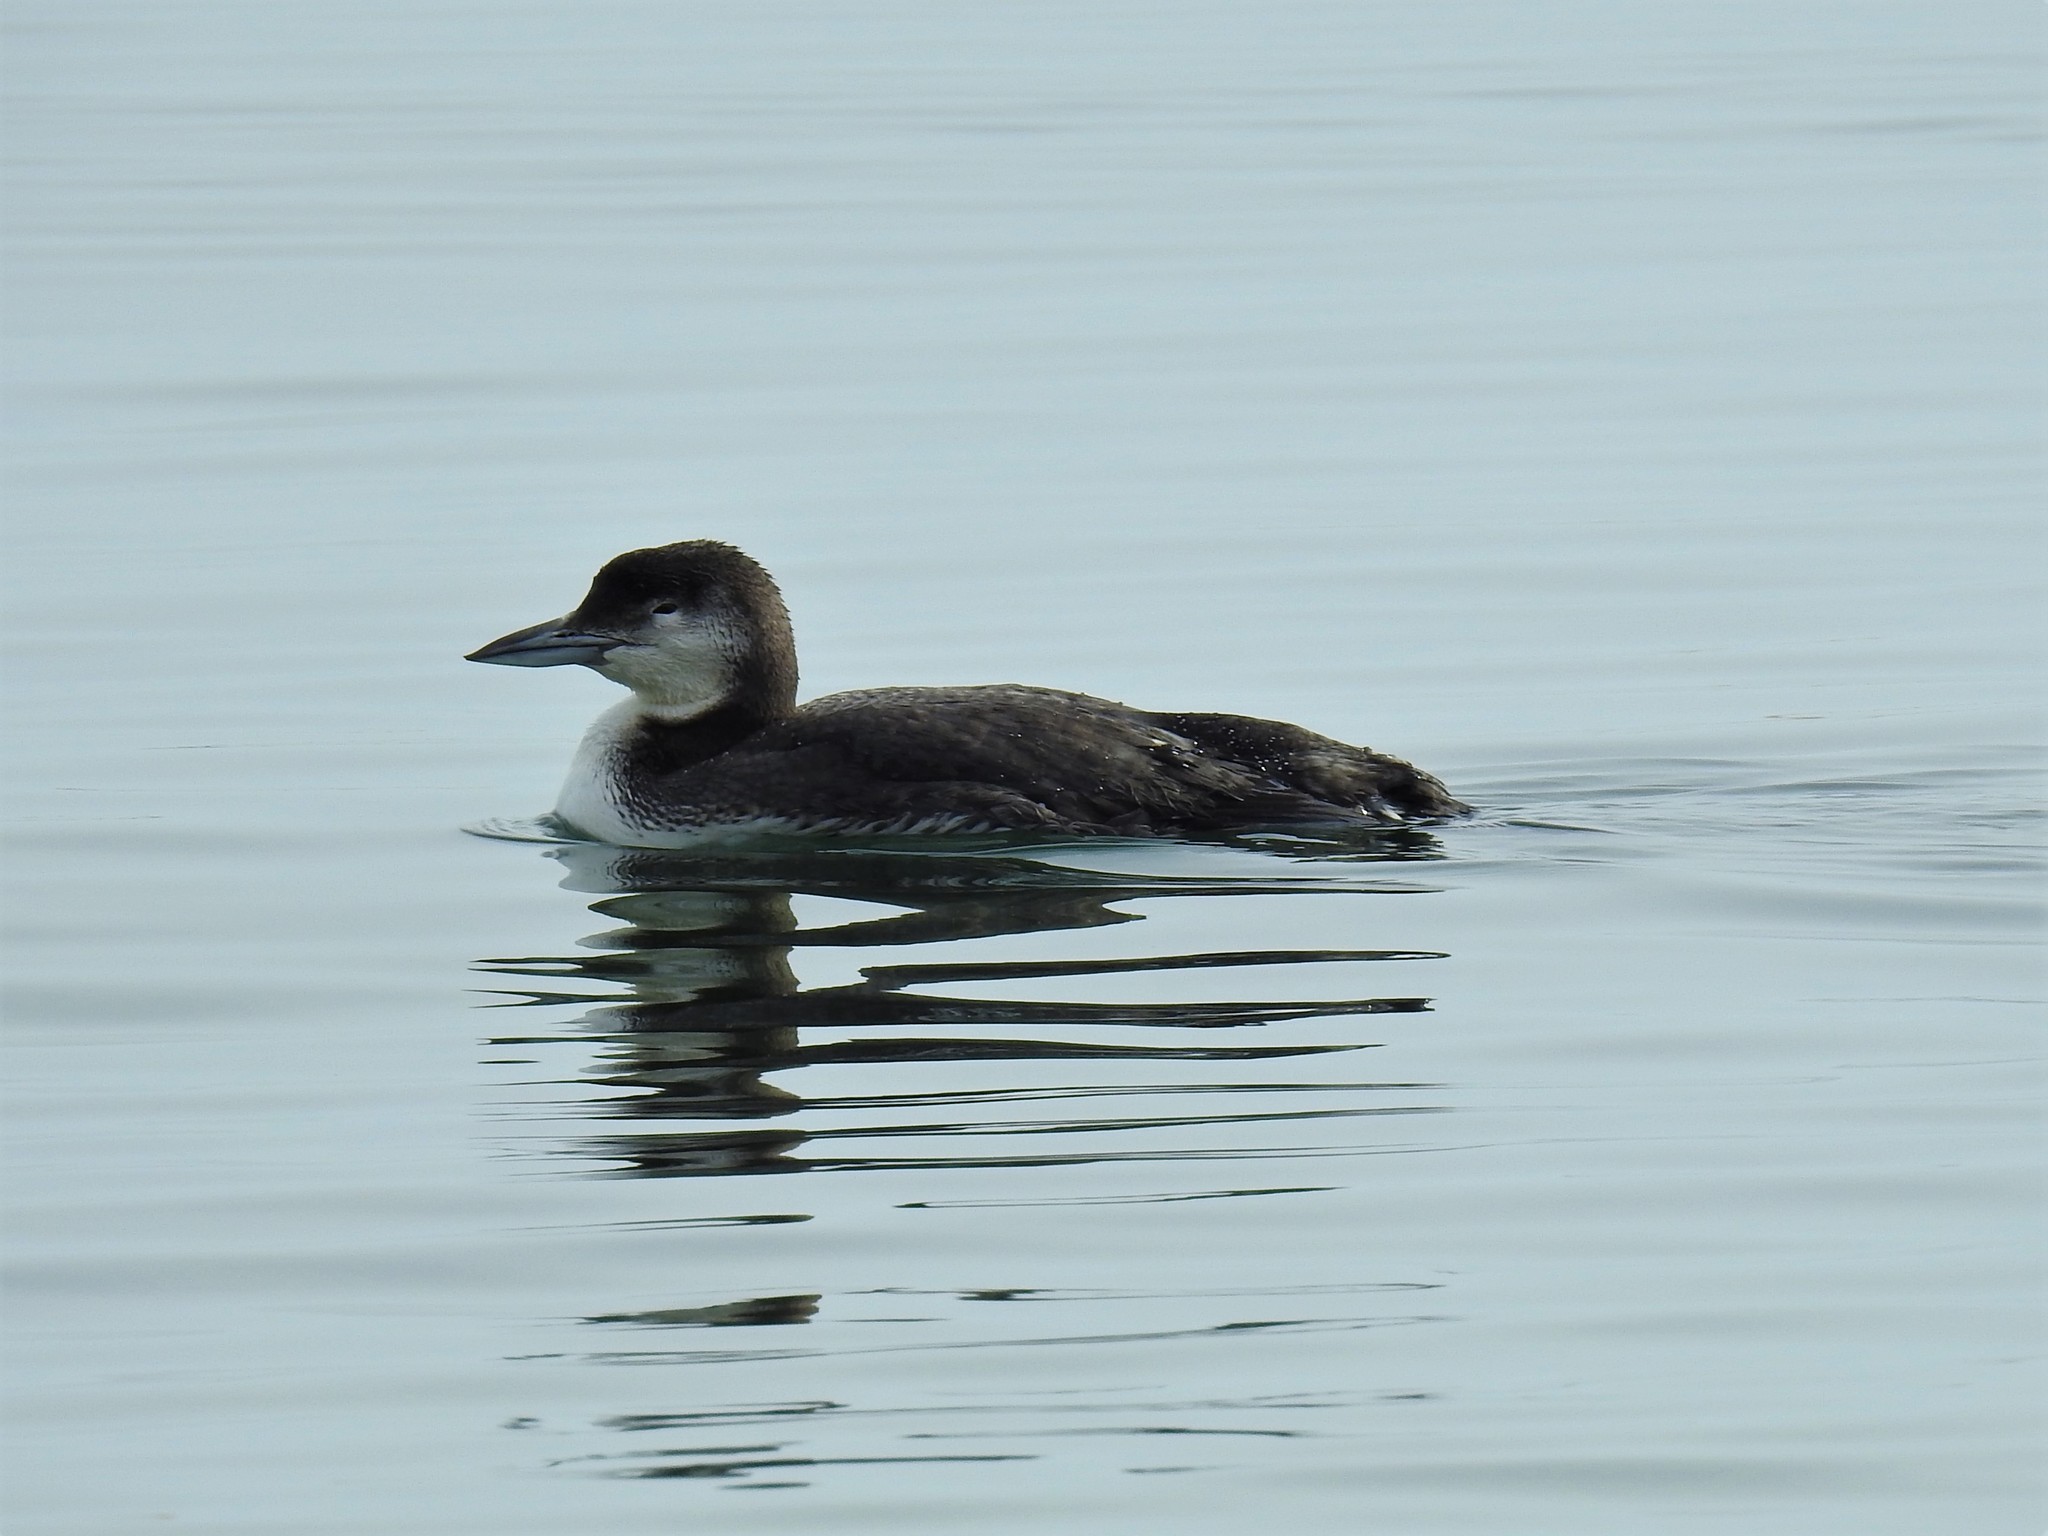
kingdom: Animalia
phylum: Chordata
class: Aves
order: Gaviiformes
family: Gaviidae
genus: Gavia
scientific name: Gavia immer
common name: Common loon
